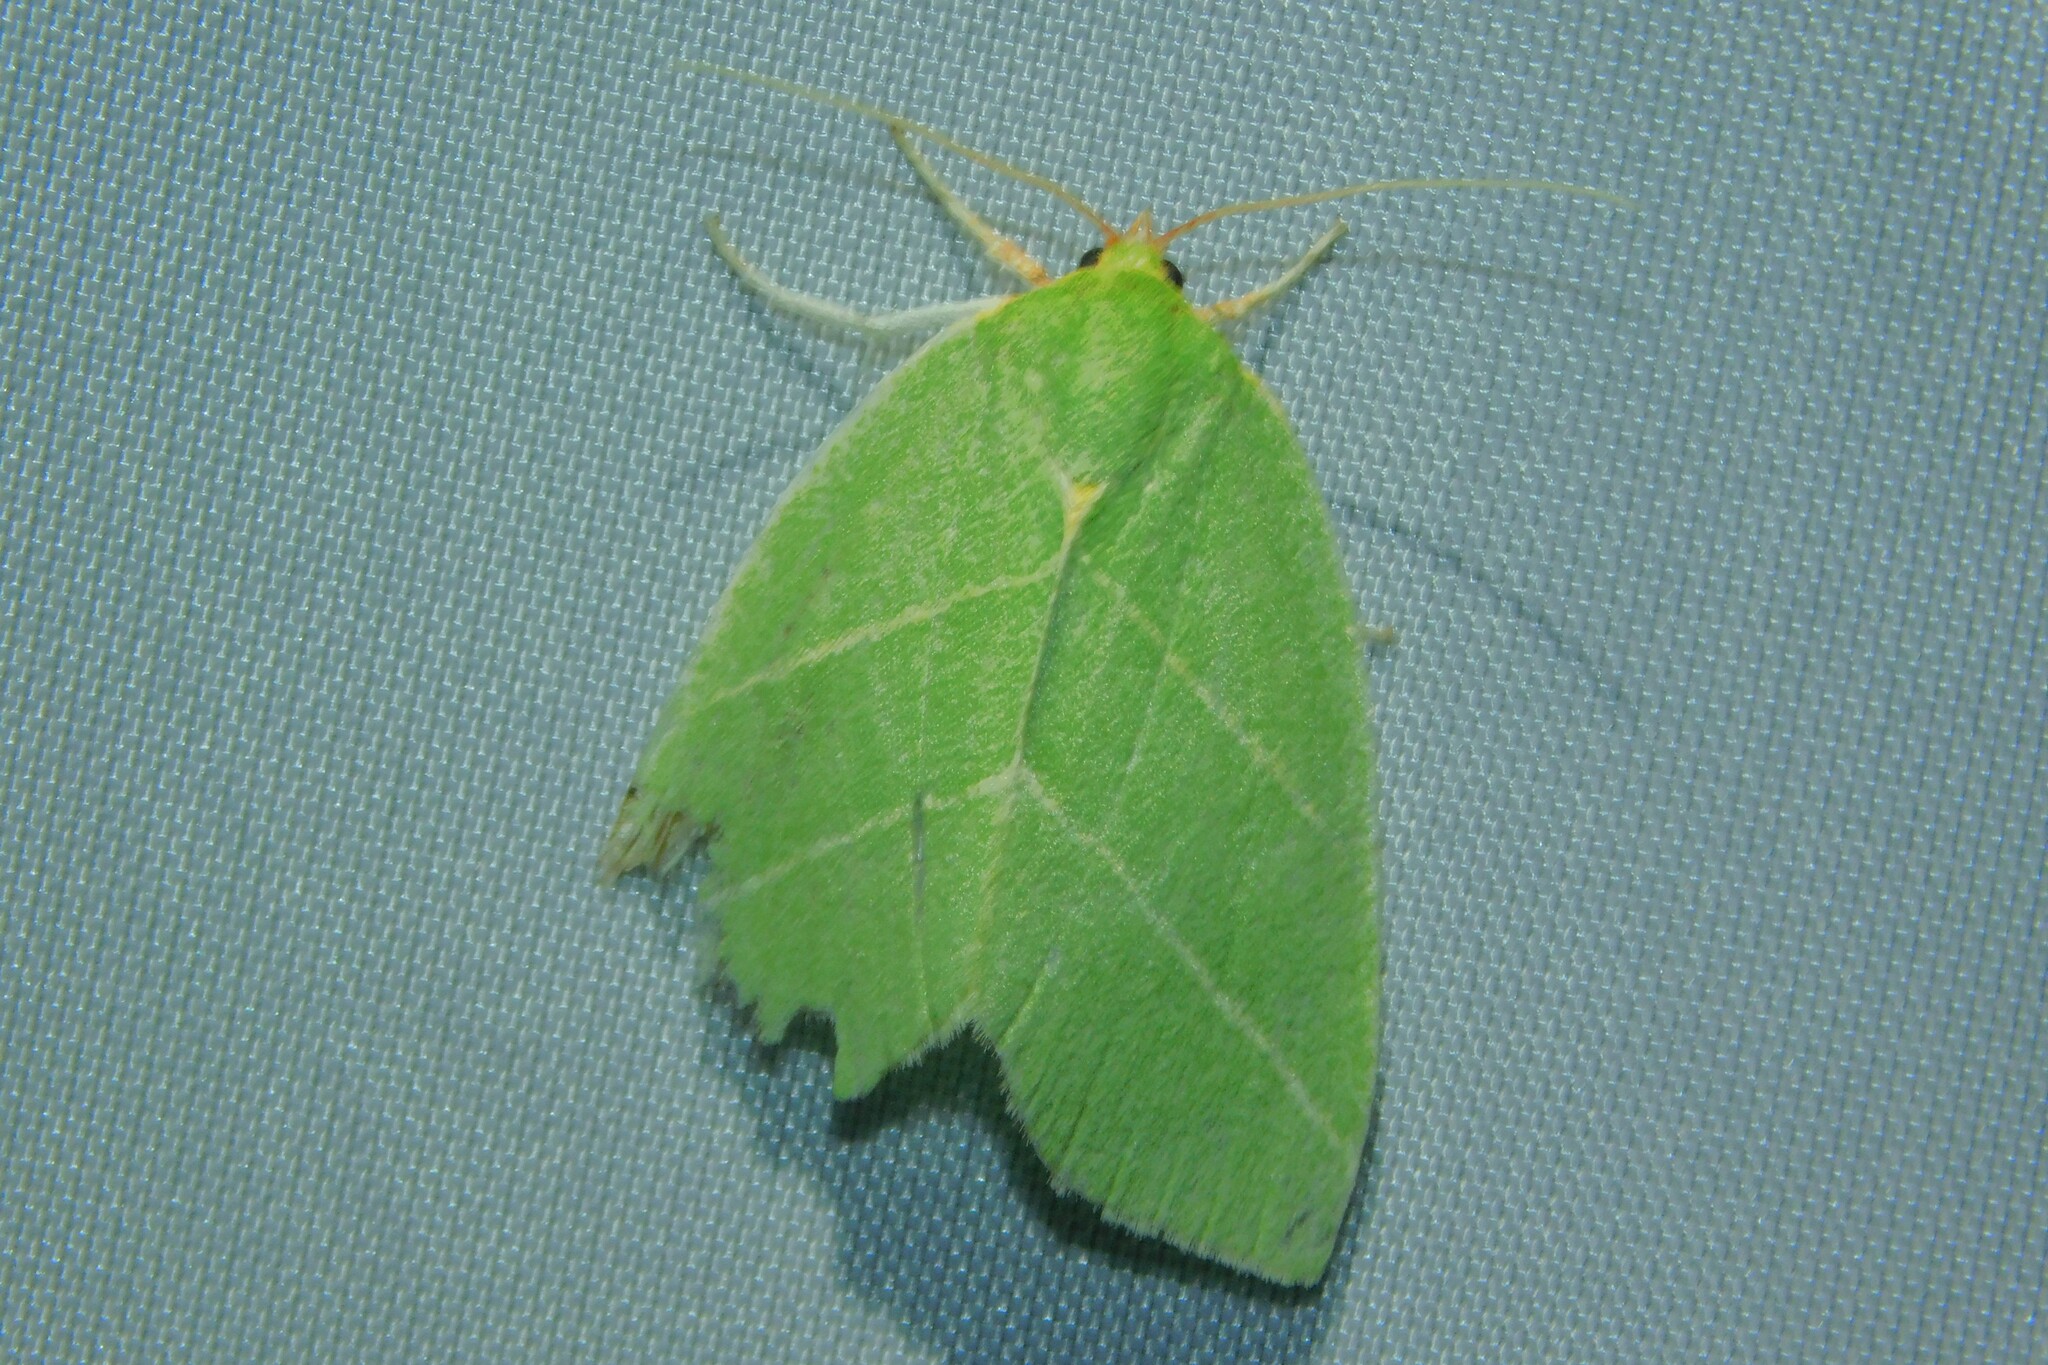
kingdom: Animalia
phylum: Arthropoda
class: Insecta
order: Lepidoptera
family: Nolidae
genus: Bena
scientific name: Bena bicolorana
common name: Scarce silver-lines
